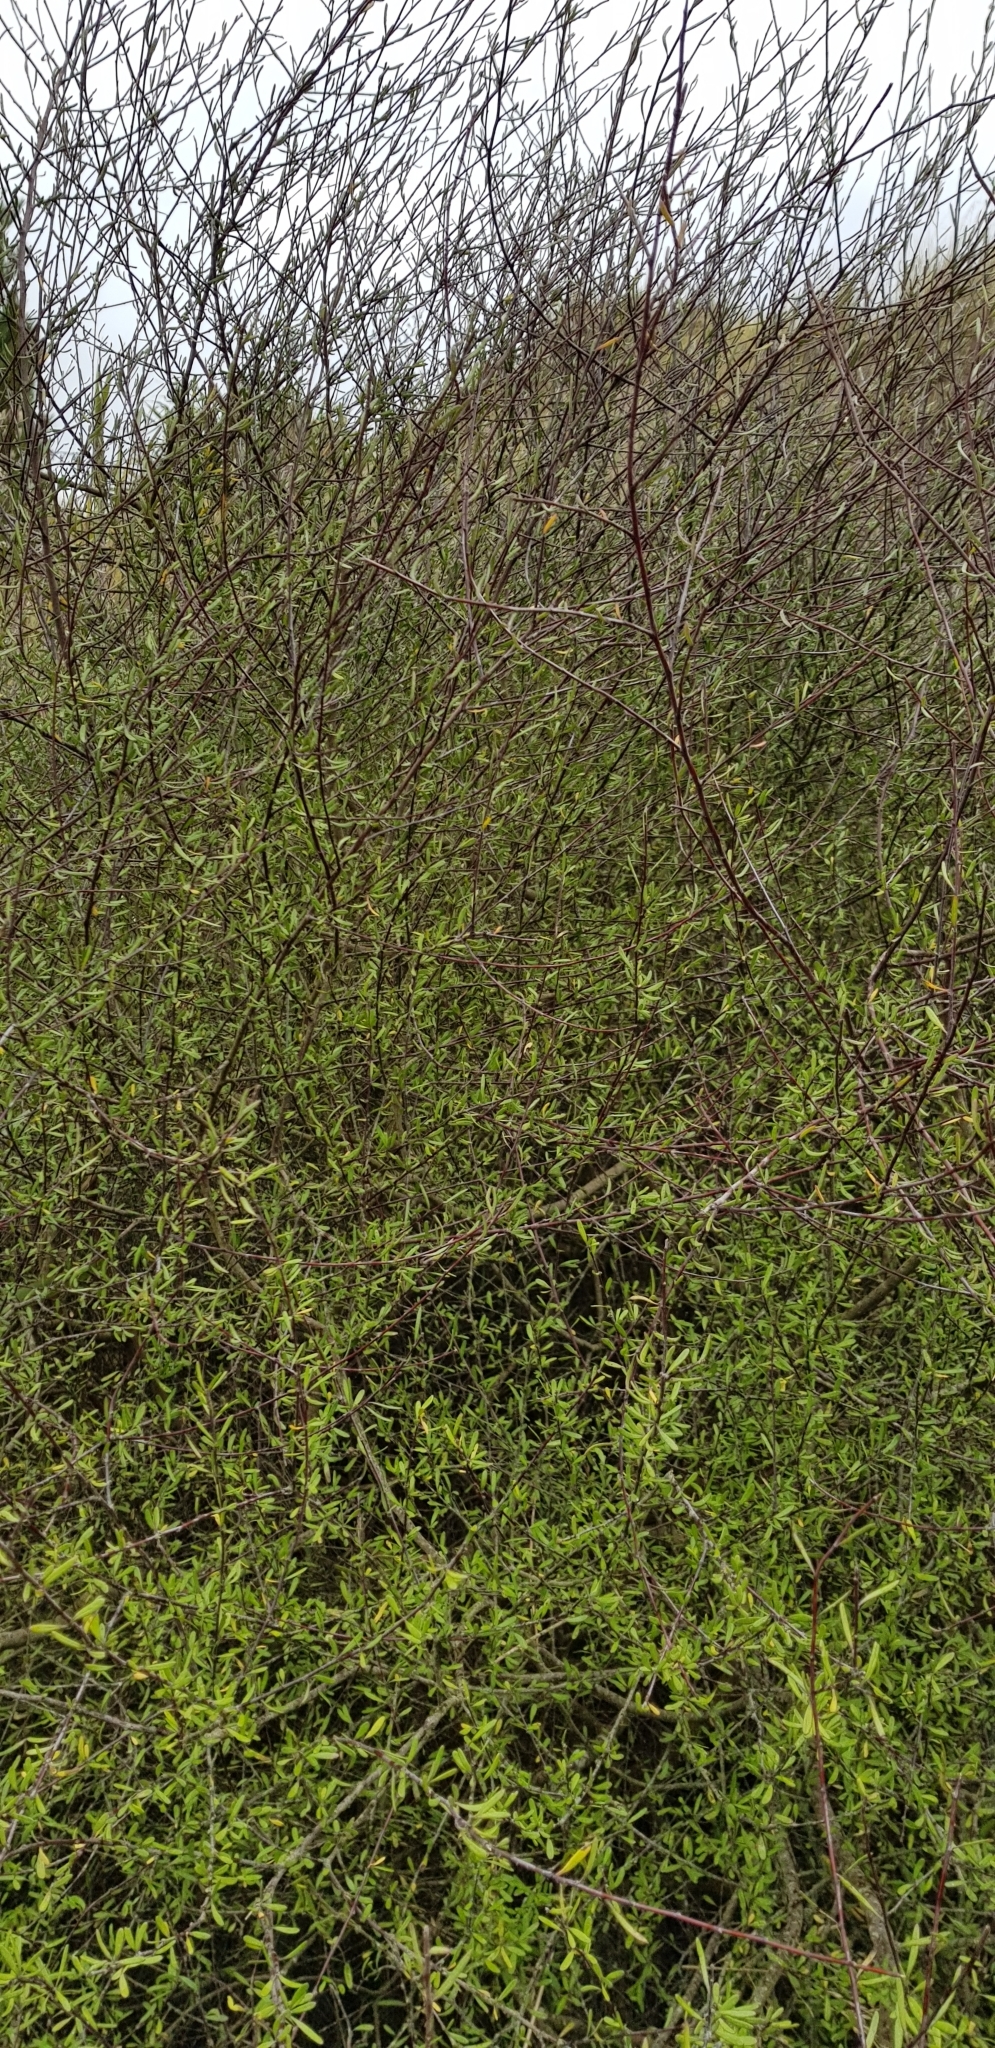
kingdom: Plantae
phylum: Tracheophyta
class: Magnoliopsida
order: Malvales
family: Malvaceae
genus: Plagianthus
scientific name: Plagianthus divaricatus
